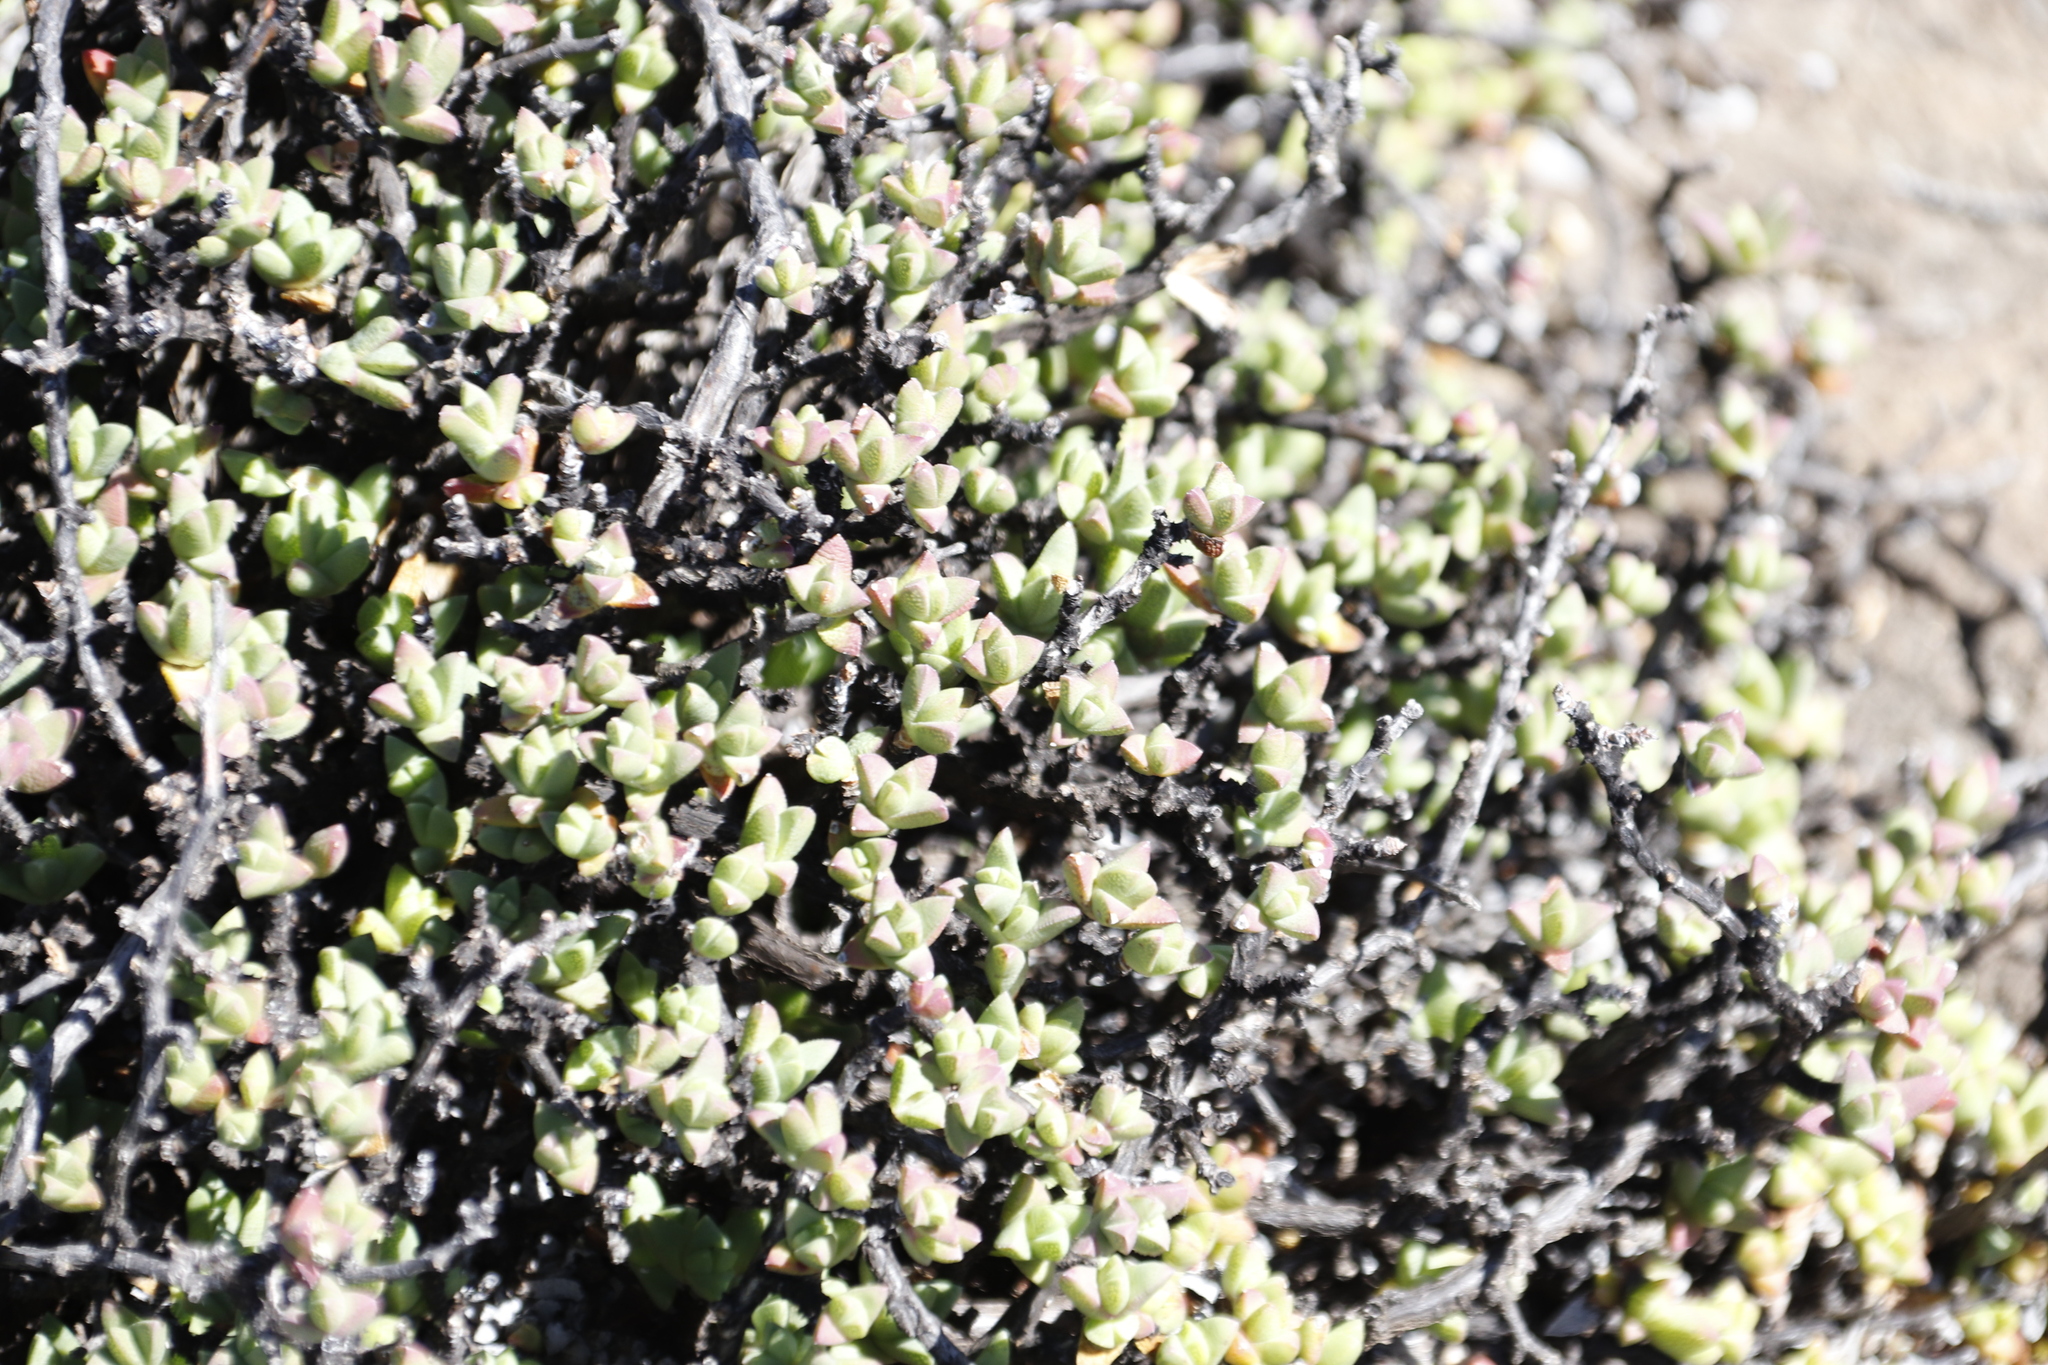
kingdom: Plantae
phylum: Tracheophyta
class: Magnoliopsida
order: Caryophyllales
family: Aizoaceae
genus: Ruschia
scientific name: Ruschia putterillii
